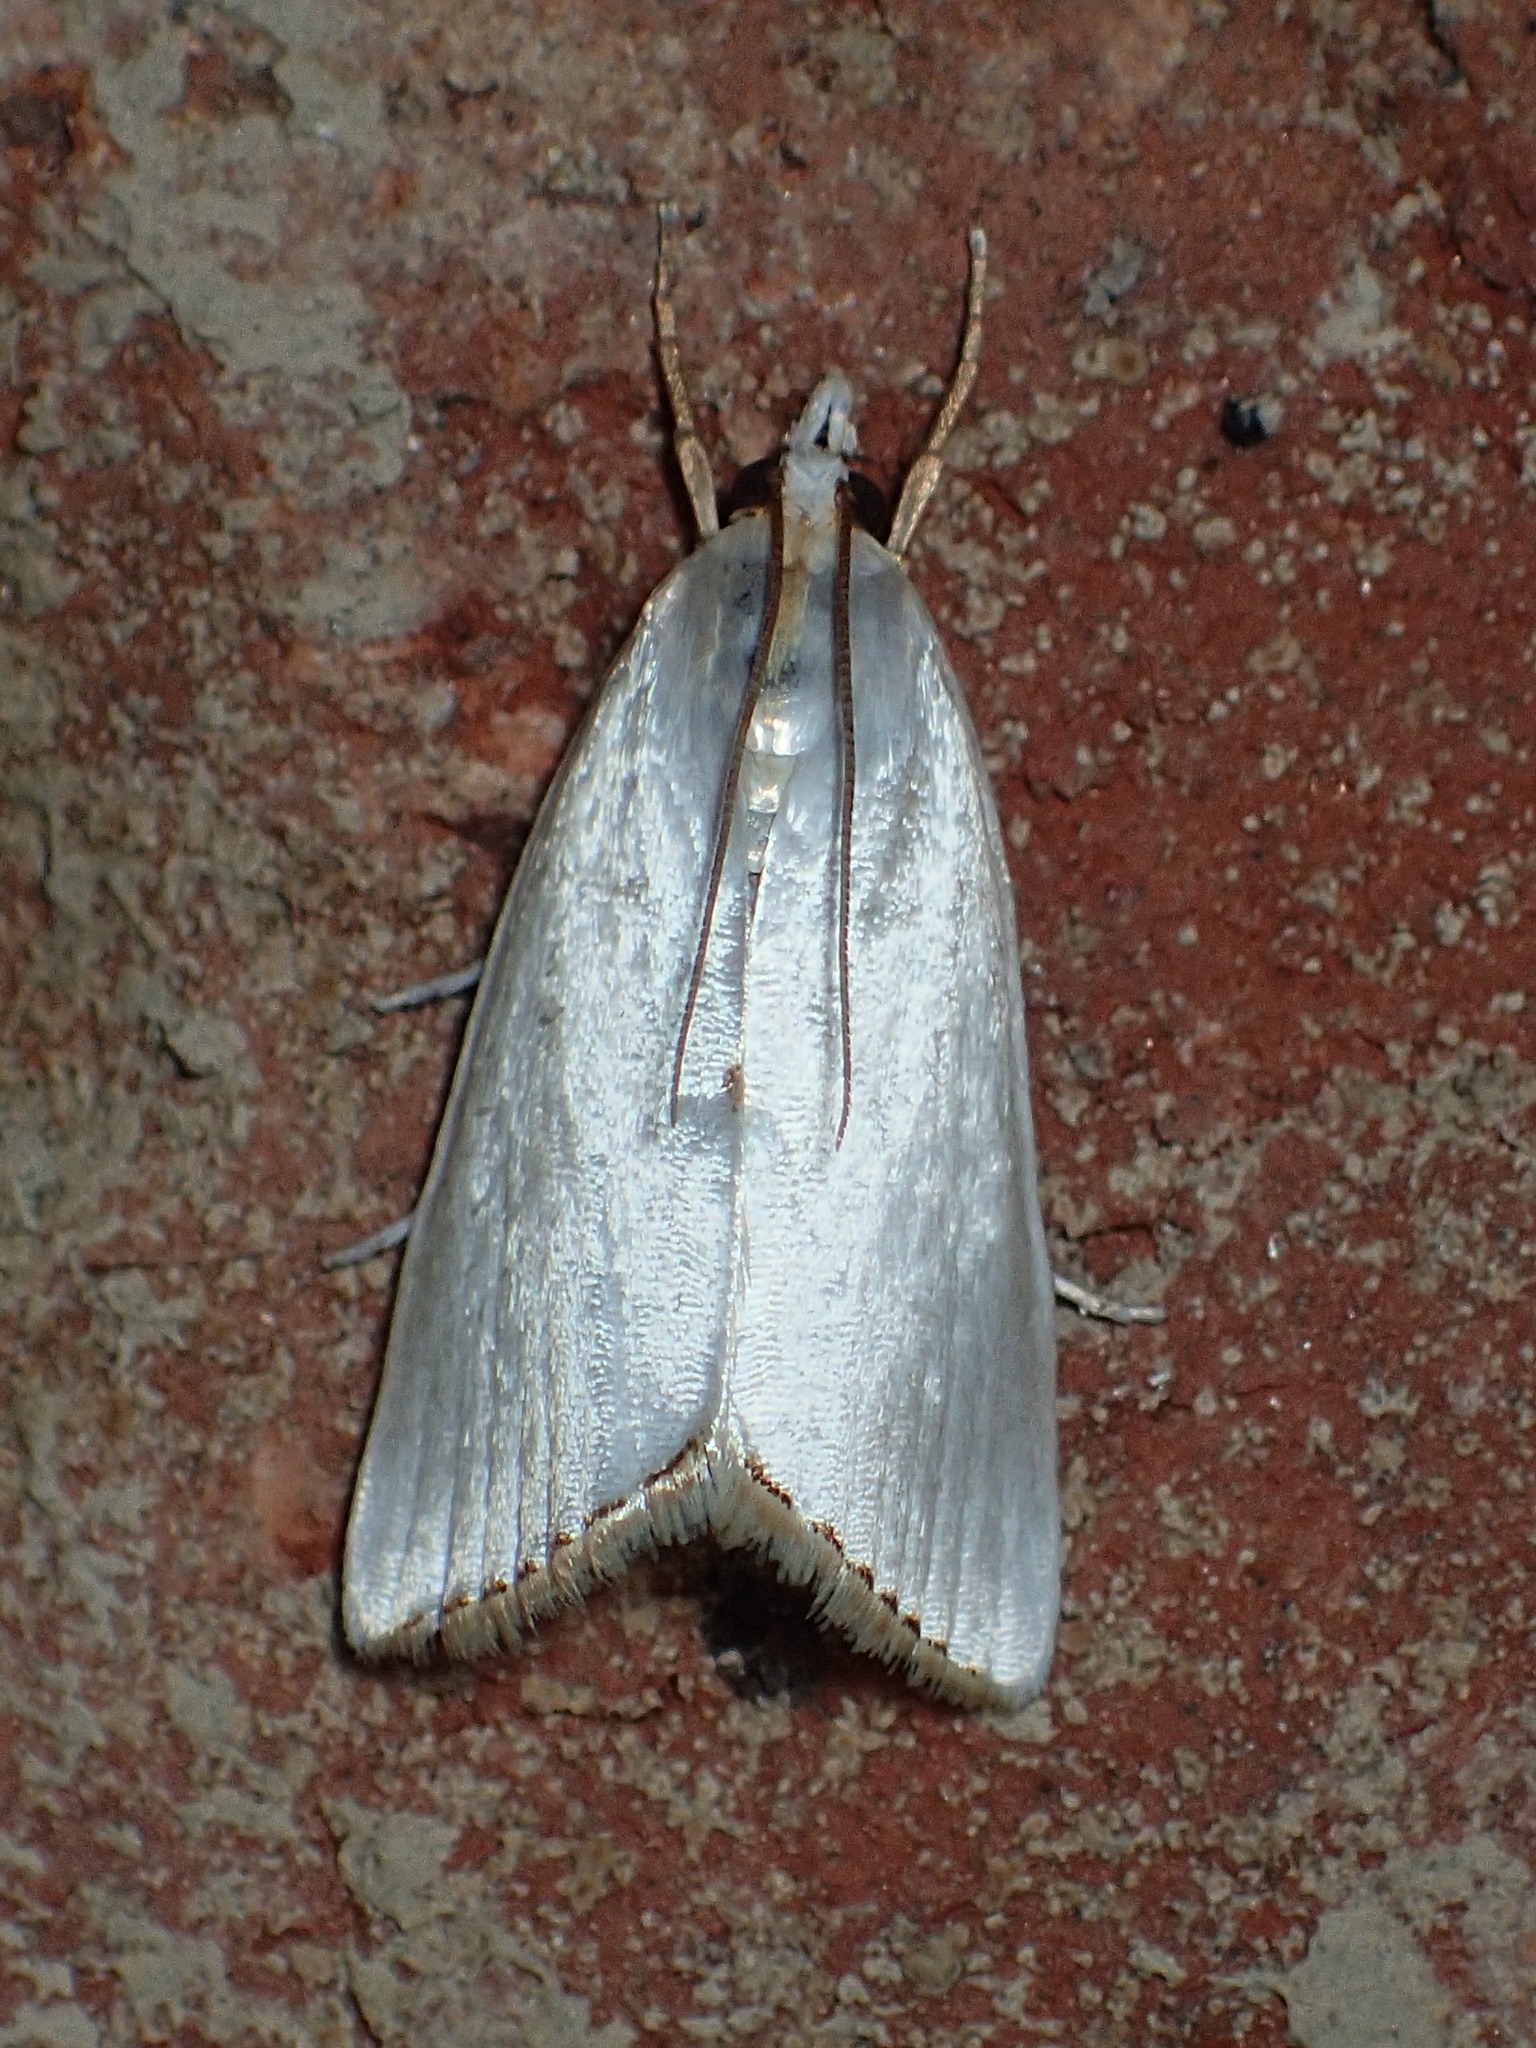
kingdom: Animalia
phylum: Arthropoda
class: Insecta
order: Lepidoptera
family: Crambidae
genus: Argyria
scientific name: Argyria nivalis
